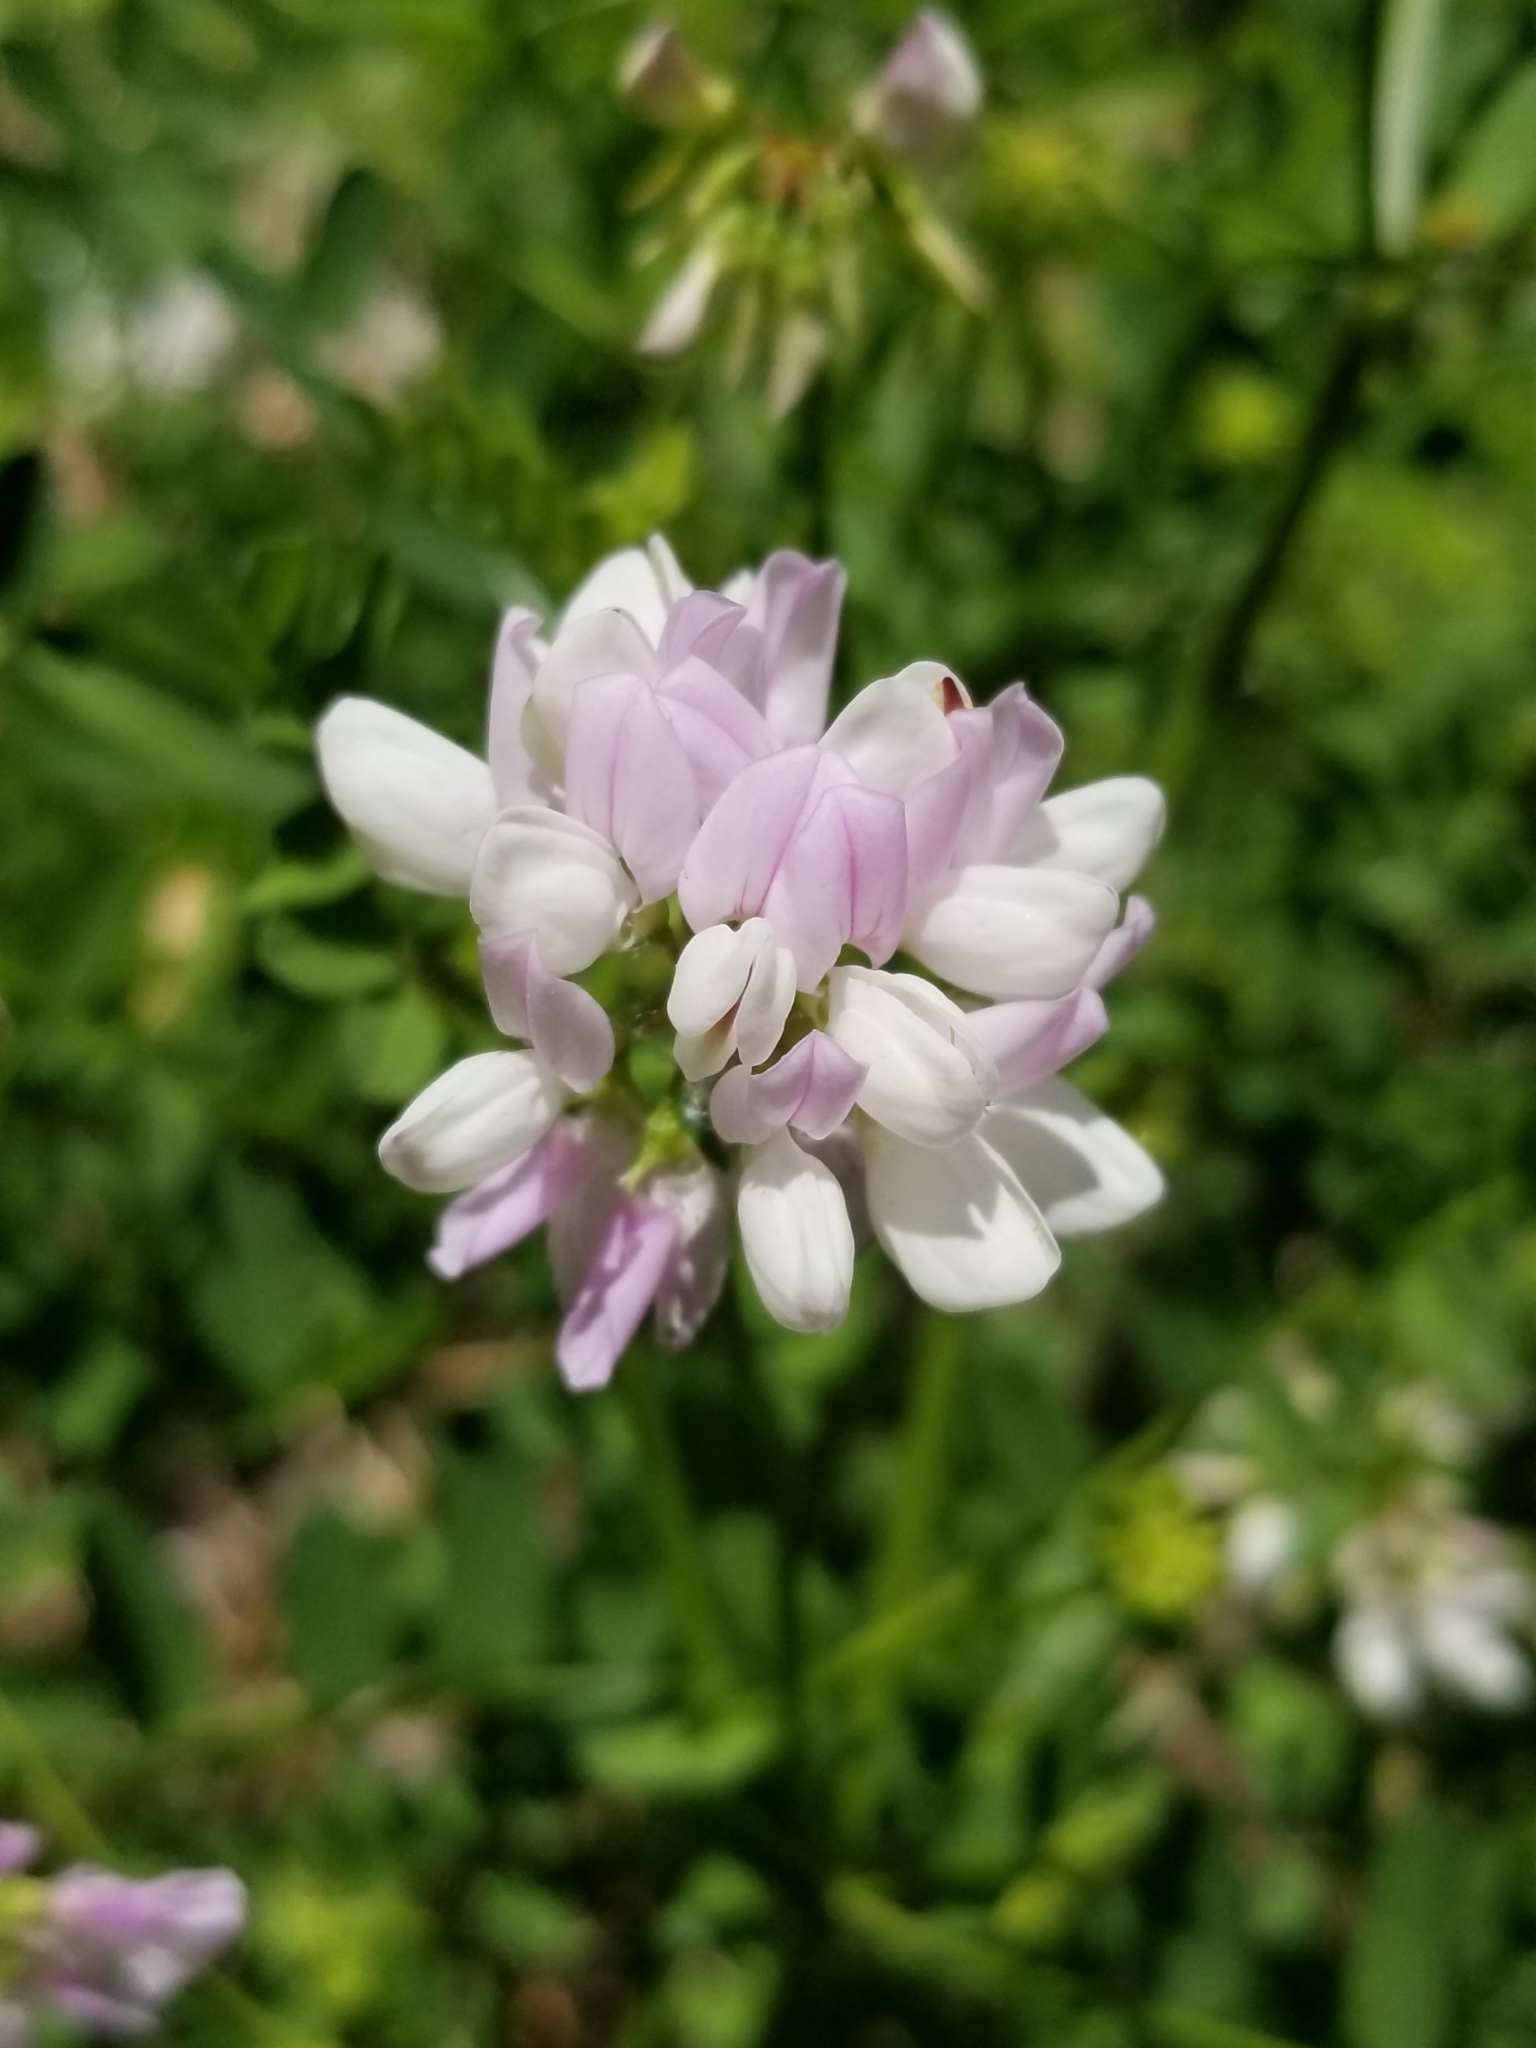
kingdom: Plantae
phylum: Tracheophyta
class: Magnoliopsida
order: Fabales
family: Fabaceae
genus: Coronilla
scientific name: Coronilla varia
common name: Crownvetch
